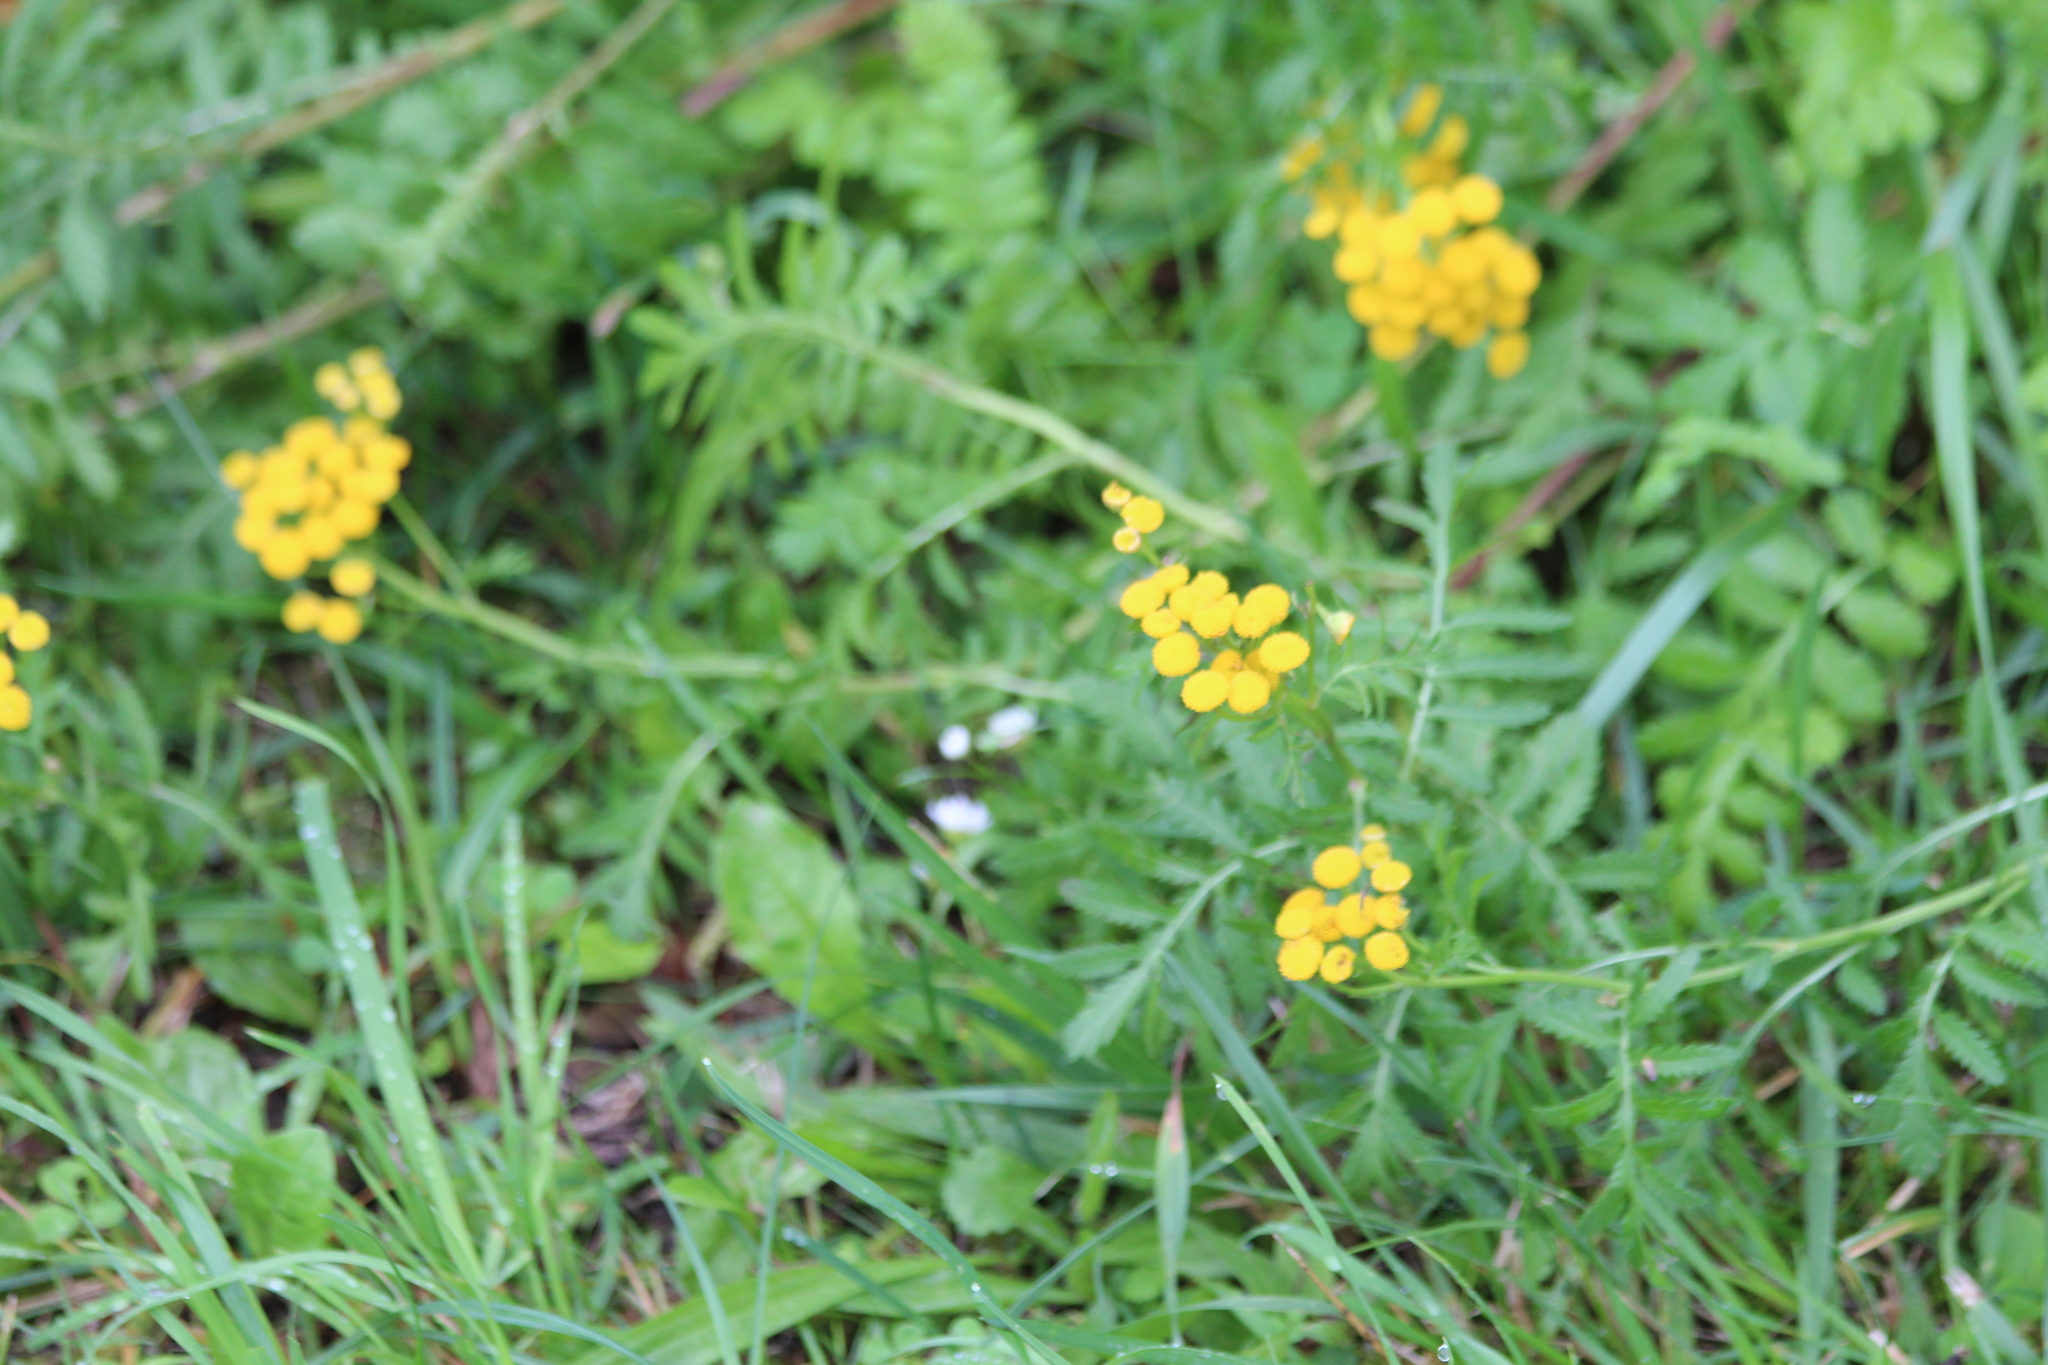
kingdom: Plantae
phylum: Tracheophyta
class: Magnoliopsida
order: Asterales
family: Asteraceae
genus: Tanacetum
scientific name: Tanacetum vulgare
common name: Common tansy
